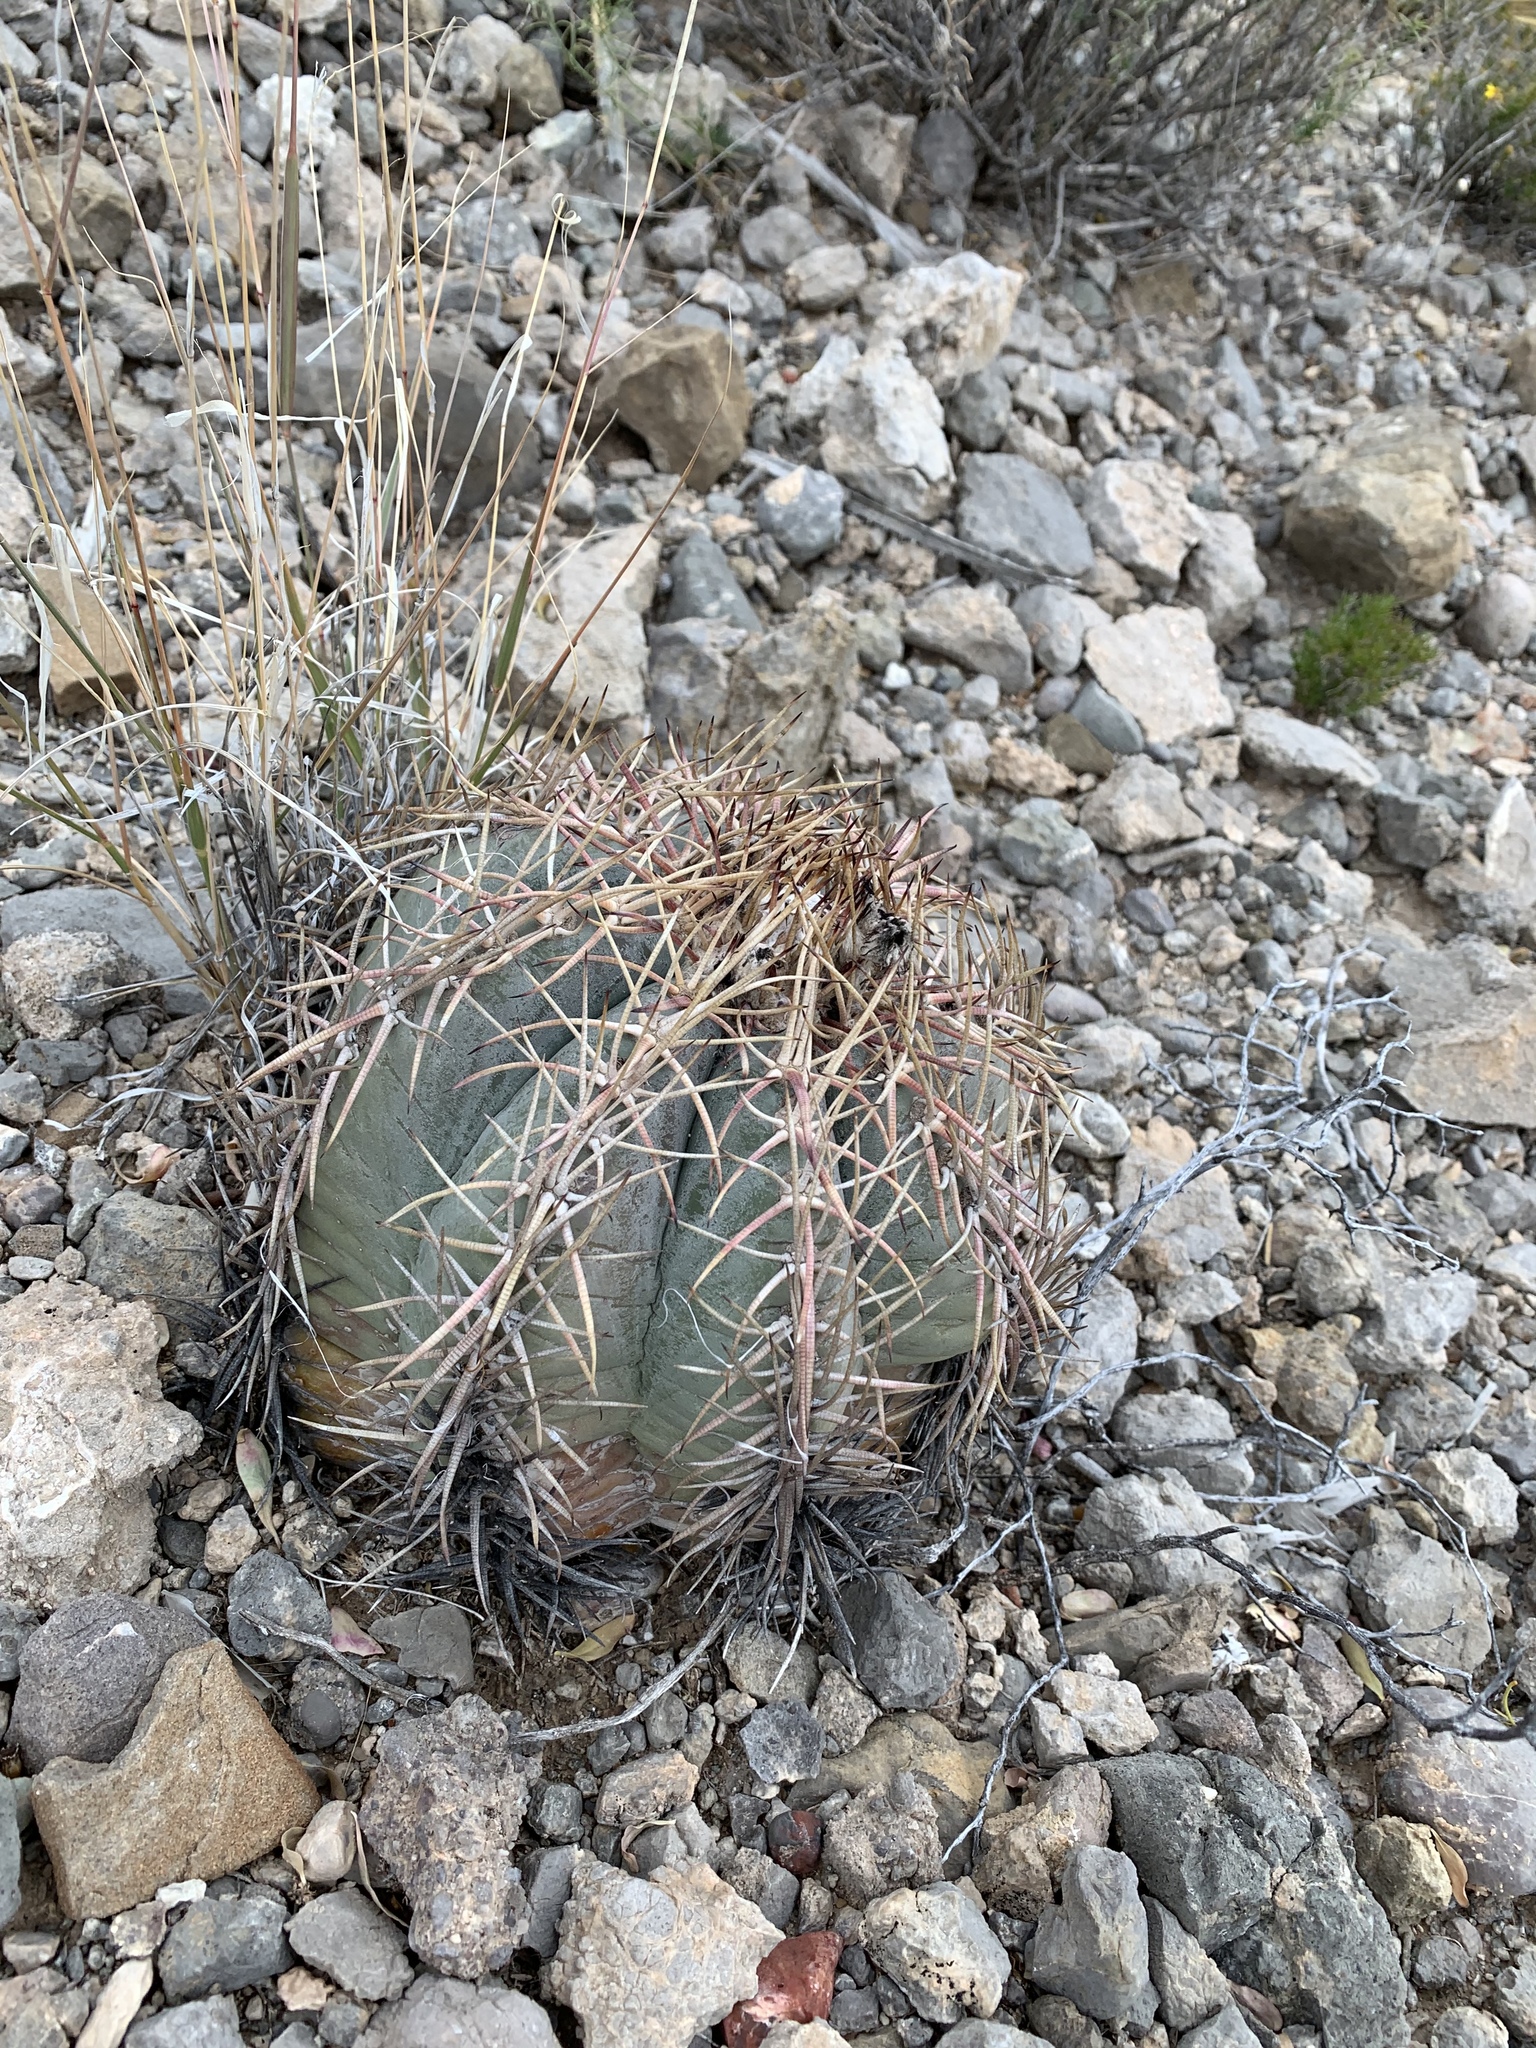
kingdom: Plantae
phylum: Tracheophyta
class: Magnoliopsida
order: Caryophyllales
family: Cactaceae
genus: Echinocactus
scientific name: Echinocactus horizonthalonius
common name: Devilshead
